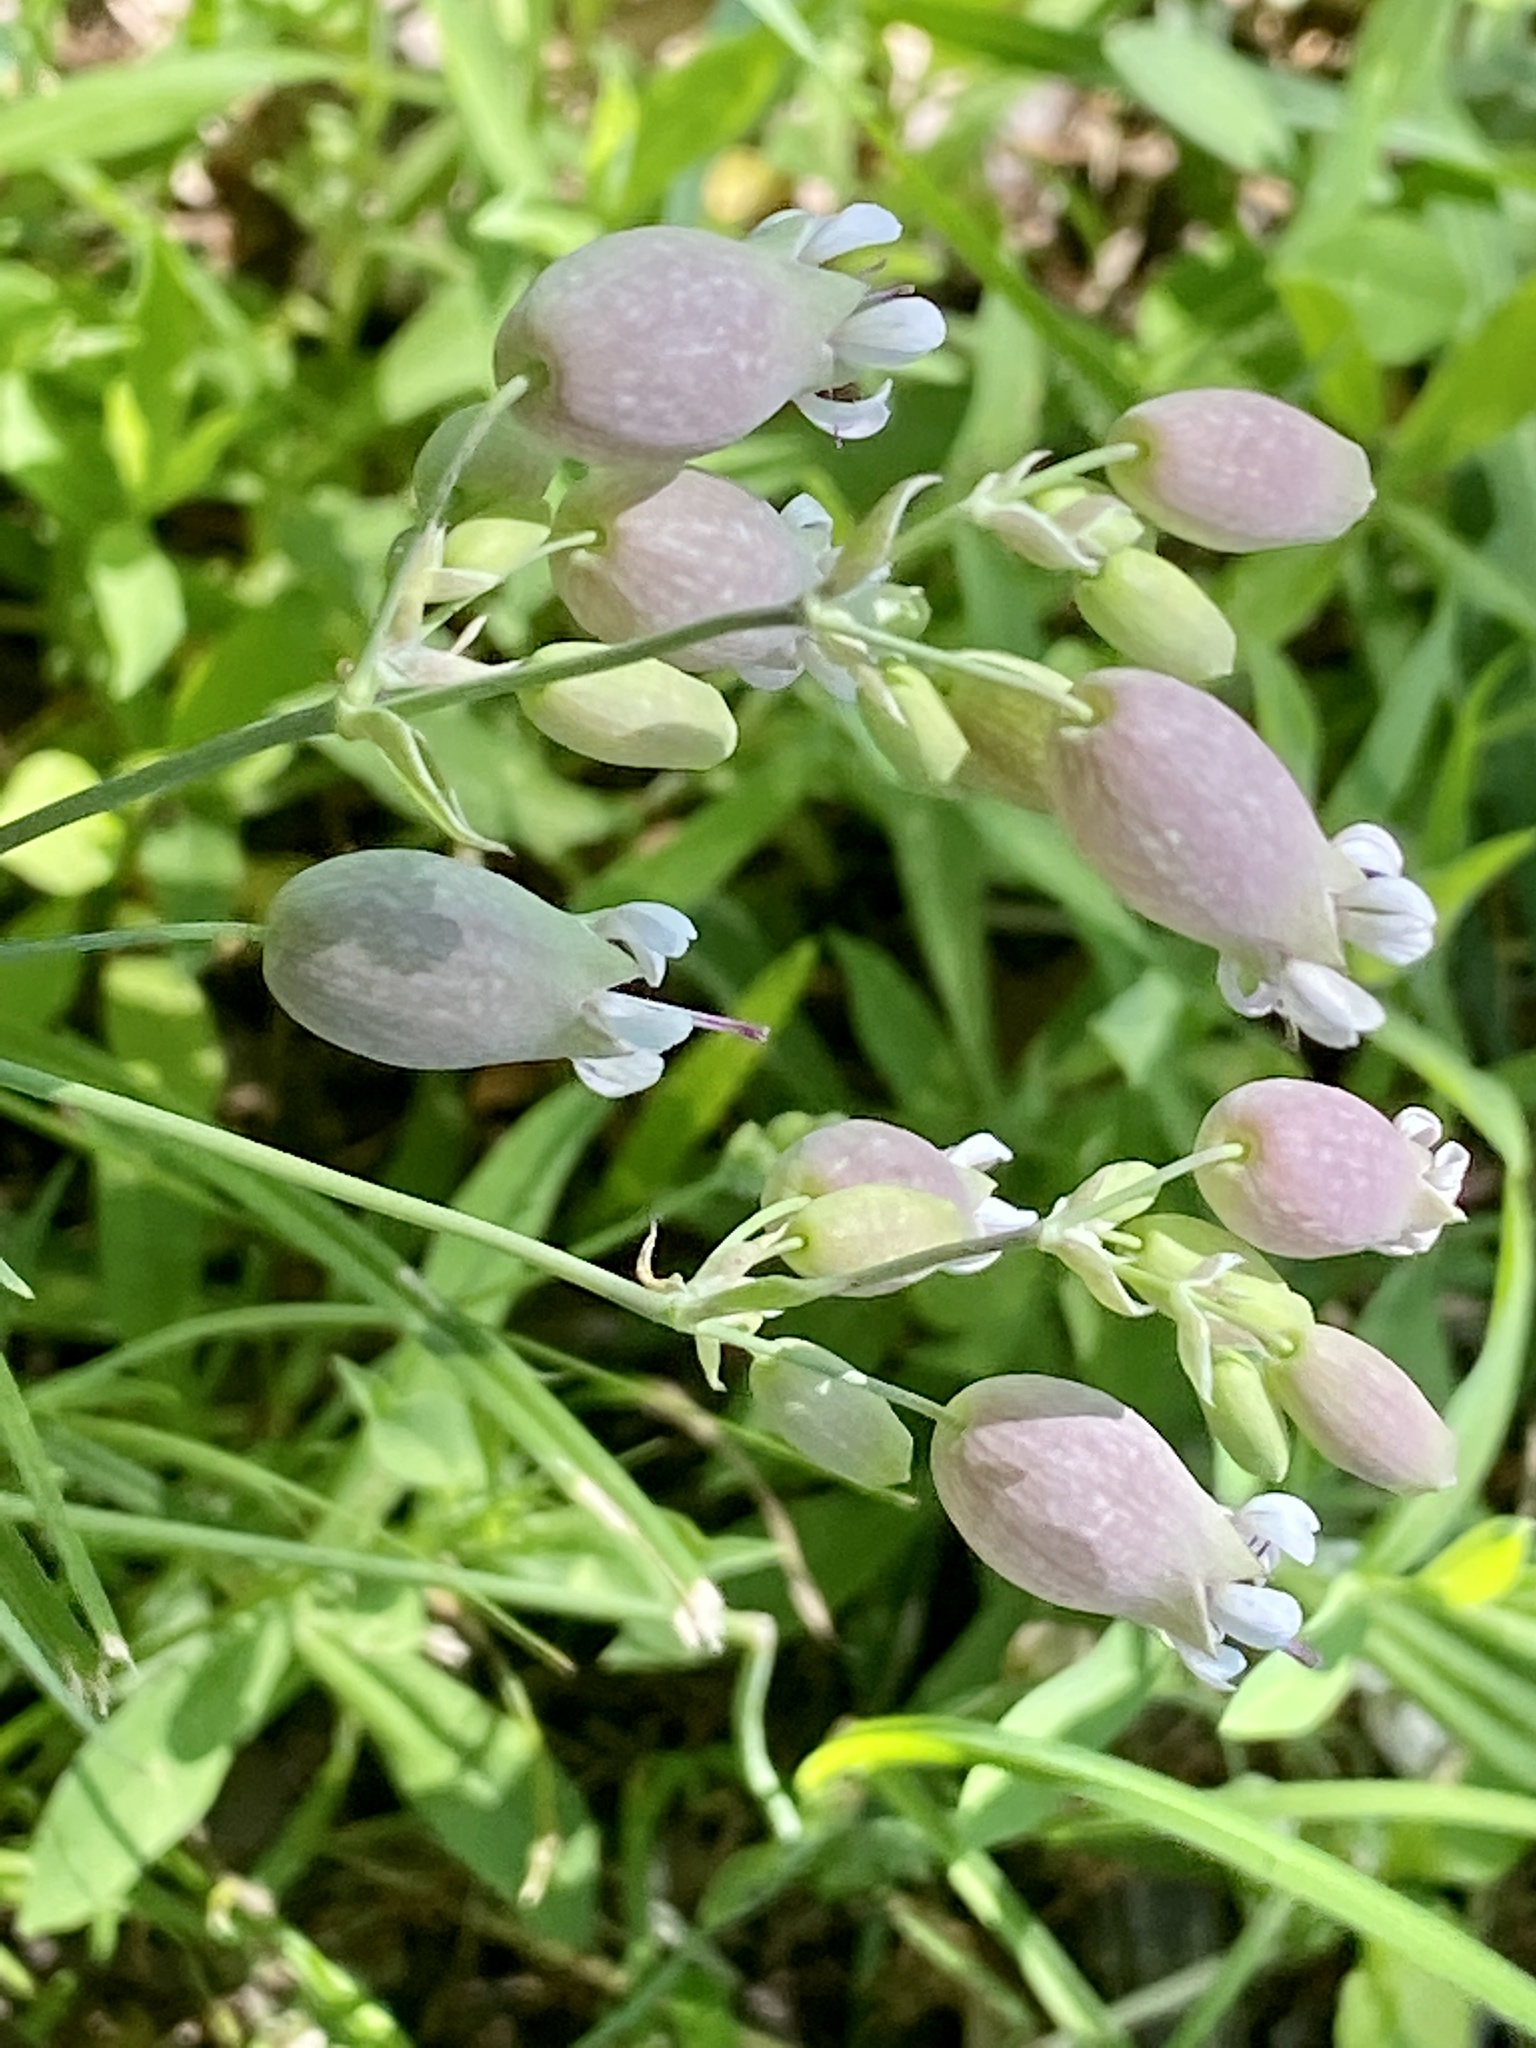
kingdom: Plantae
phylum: Tracheophyta
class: Magnoliopsida
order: Caryophyllales
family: Caryophyllaceae
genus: Silene
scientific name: Silene vulgaris
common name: Bladder campion
